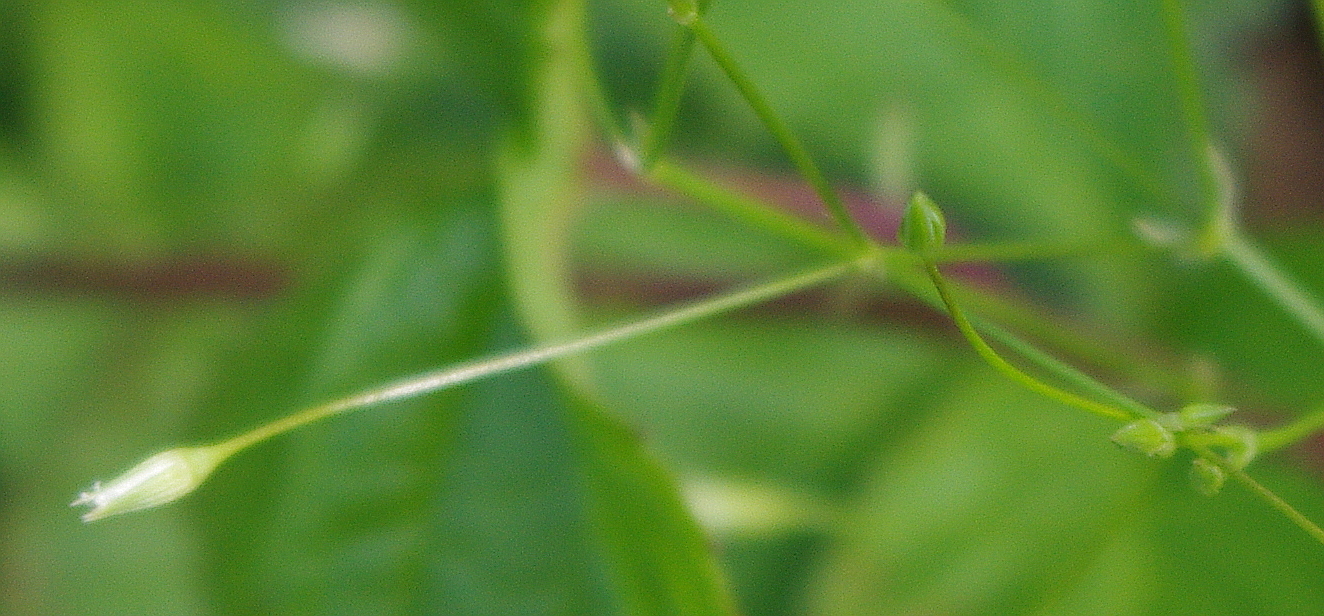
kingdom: Plantae
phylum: Tracheophyta
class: Magnoliopsida
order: Caryophyllales
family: Caryophyllaceae
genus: Stellaria
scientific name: Stellaria graminea
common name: Grass-like starwort
